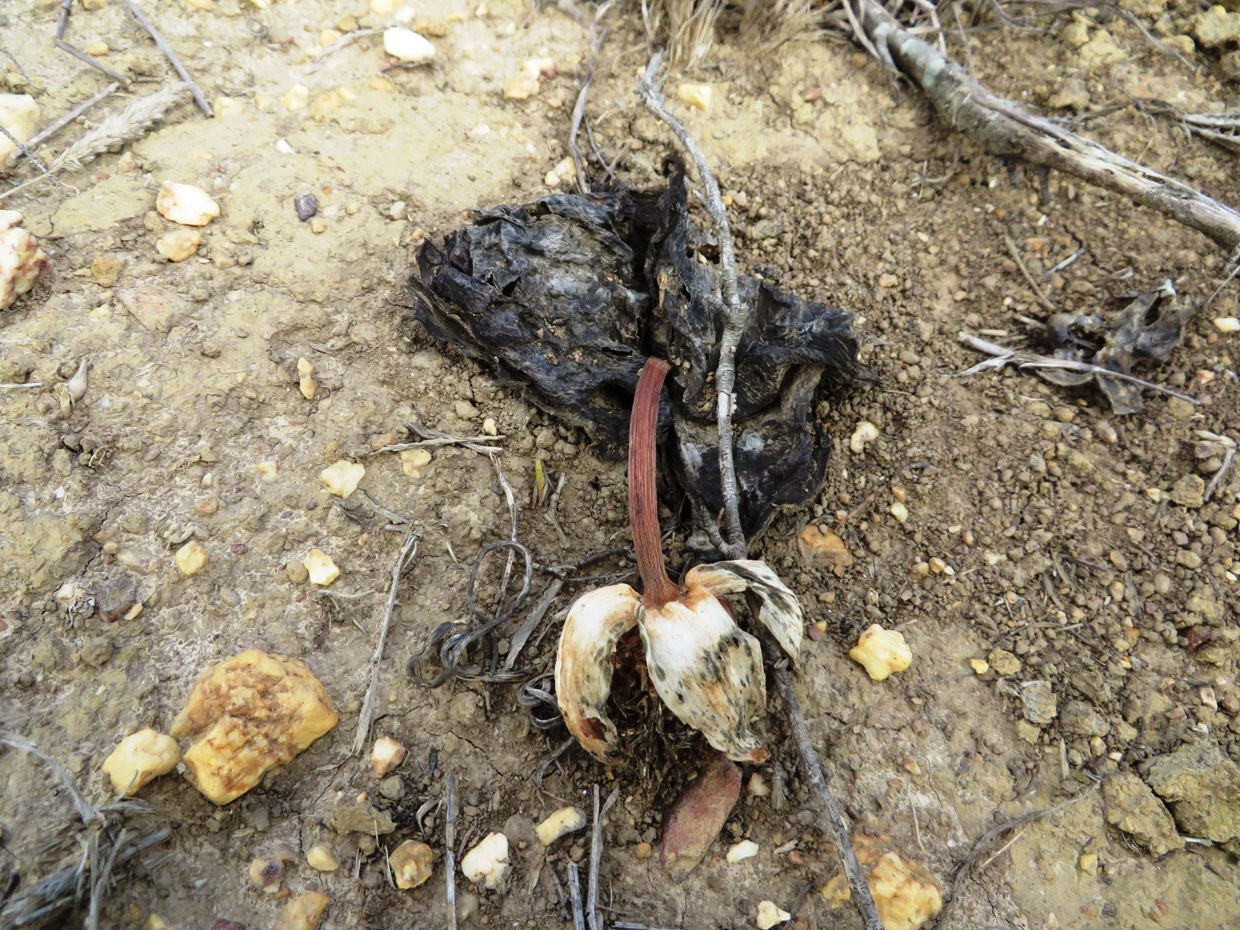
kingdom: Plantae
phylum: Tracheophyta
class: Liliopsida
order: Asparagales
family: Amaryllidaceae
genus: Haemanthus
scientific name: Haemanthus sanguineus
